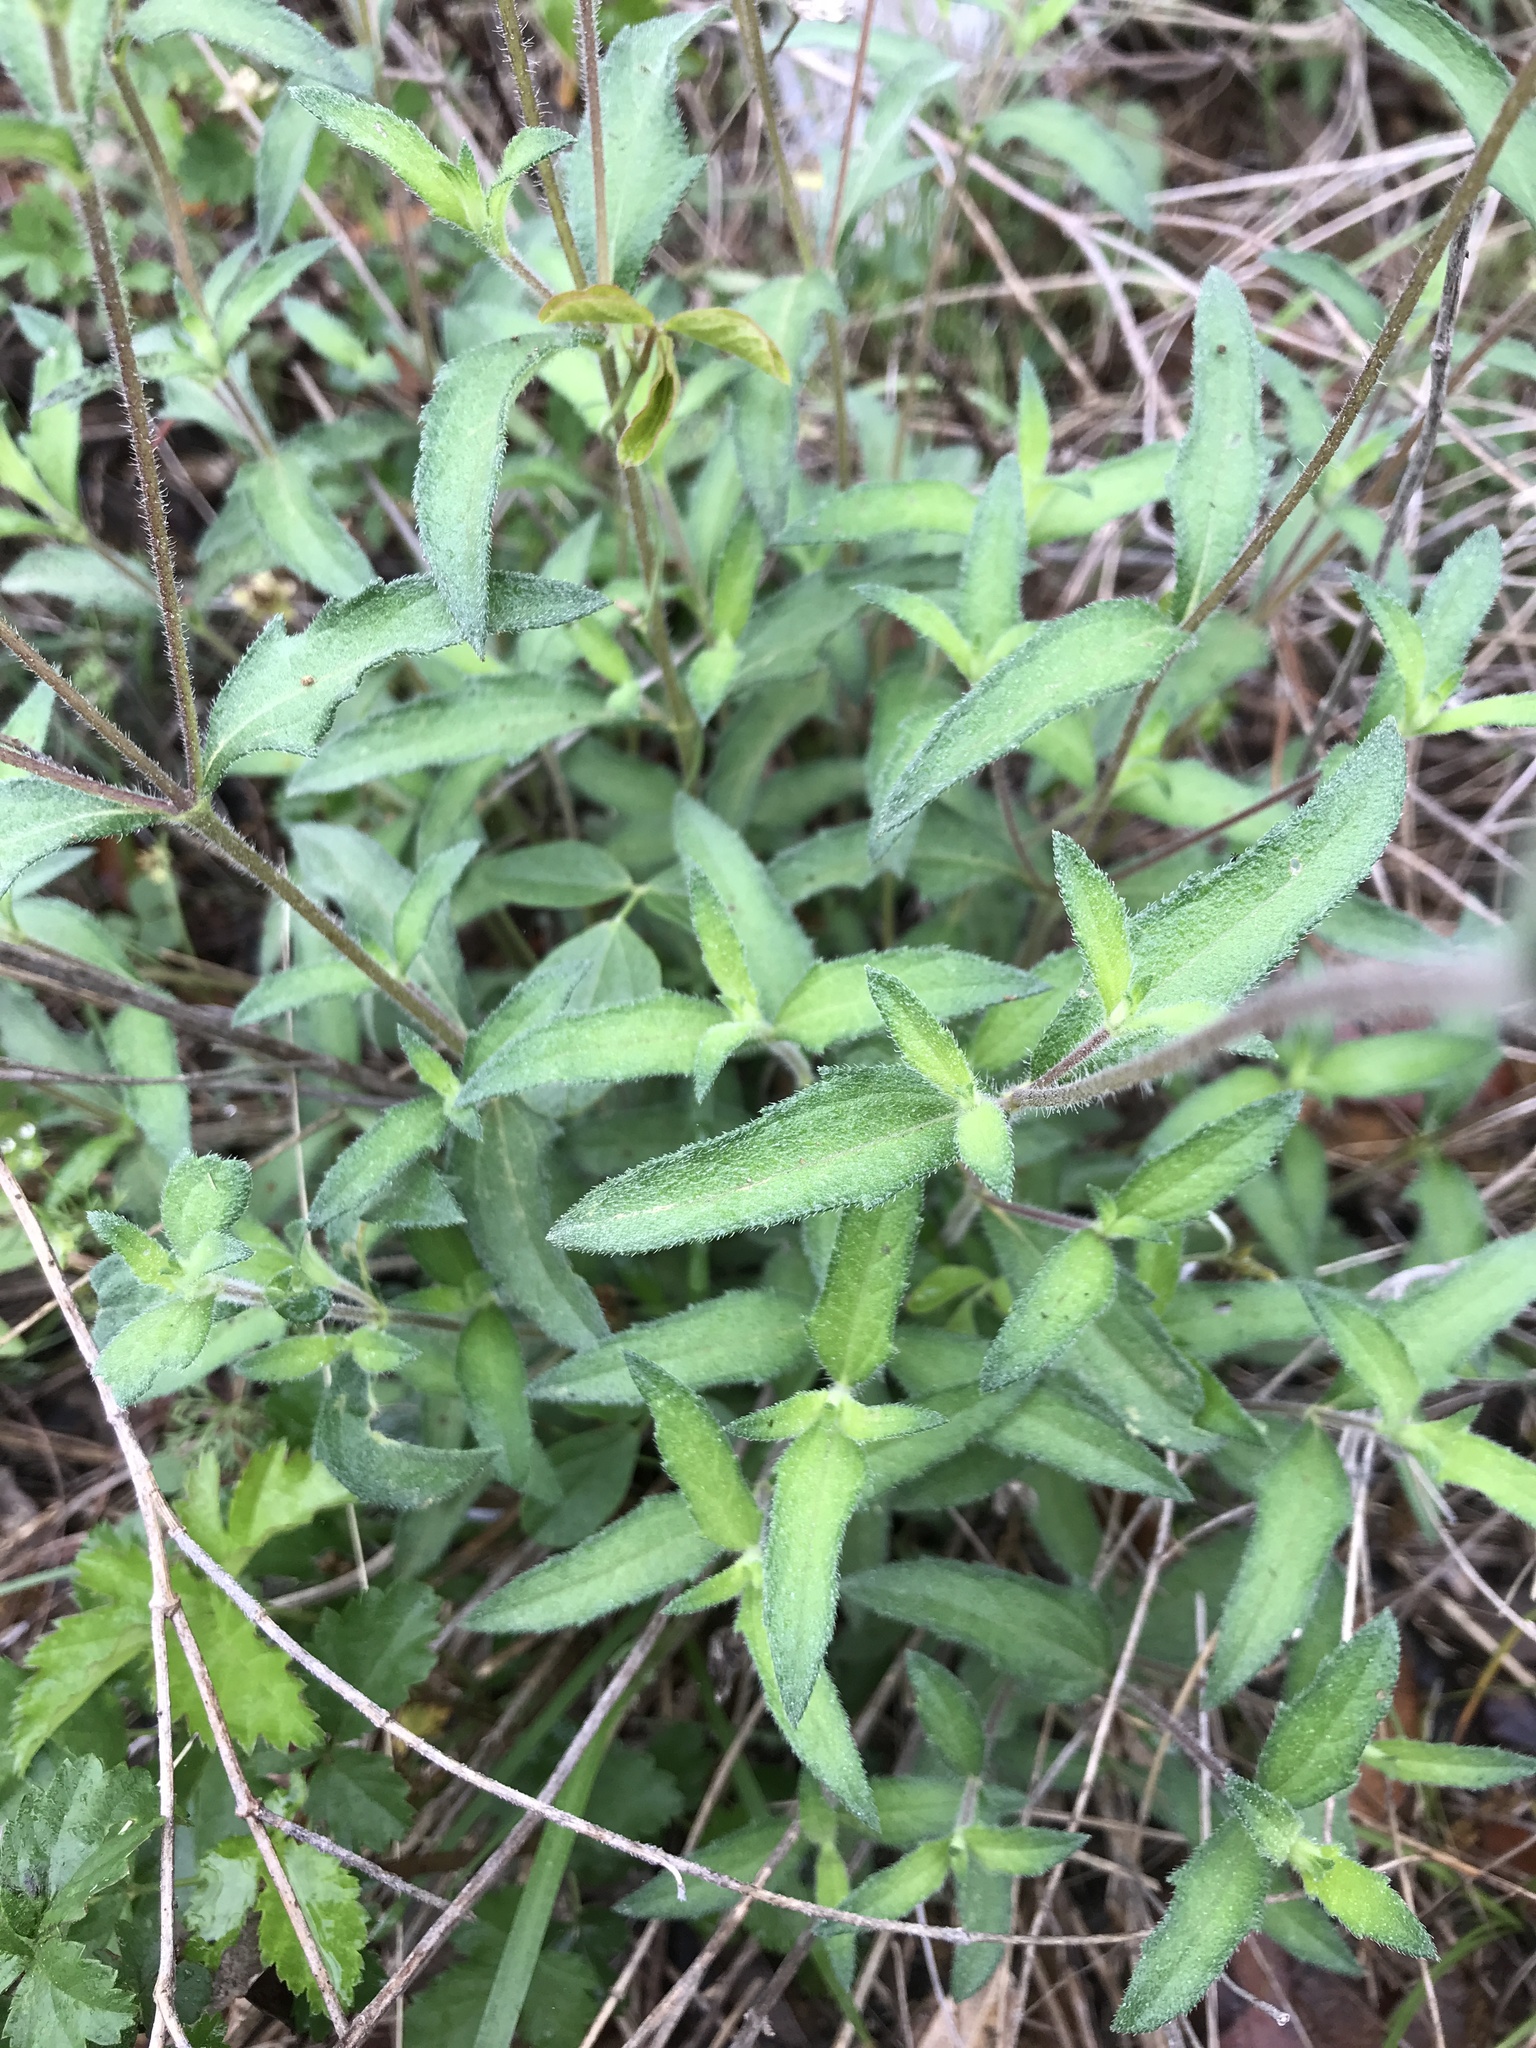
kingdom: Plantae
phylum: Tracheophyta
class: Magnoliopsida
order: Asterales
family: Asteraceae
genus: Wedelia
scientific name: Wedelia acapulcensis
